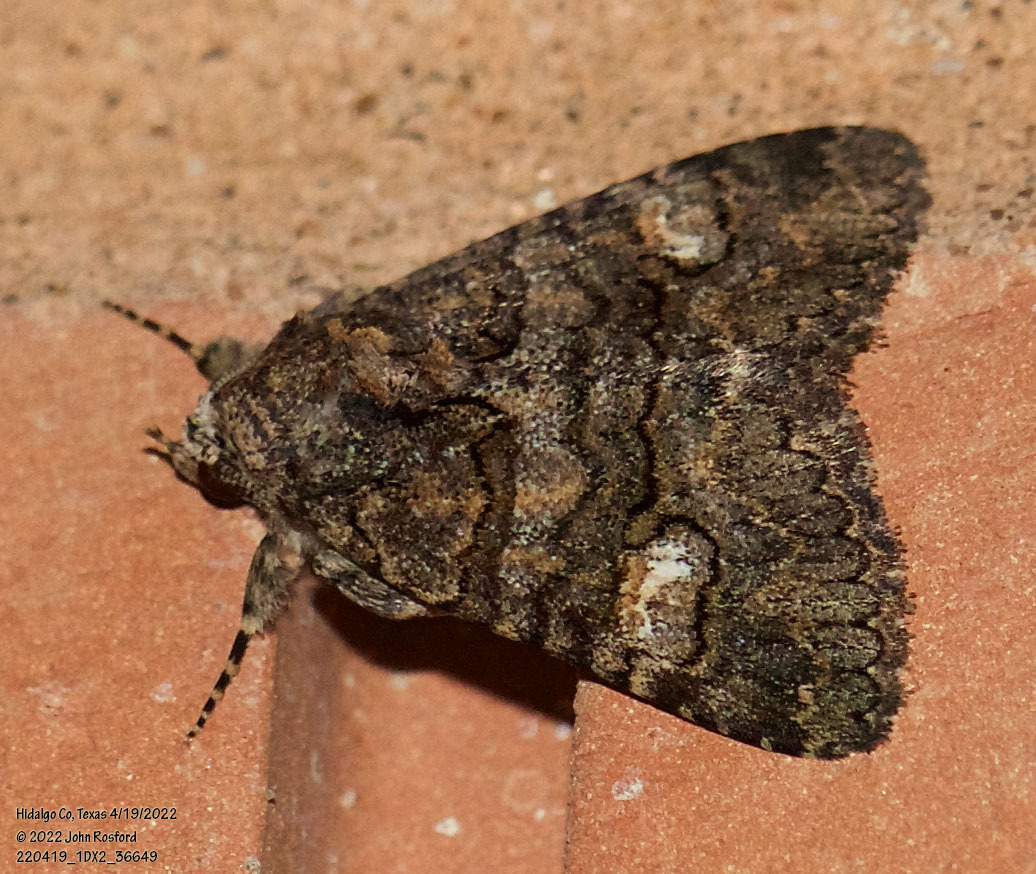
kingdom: Animalia
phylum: Arthropoda
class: Insecta
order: Lepidoptera
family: Erebidae
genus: Elousa
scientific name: Elousa mima
